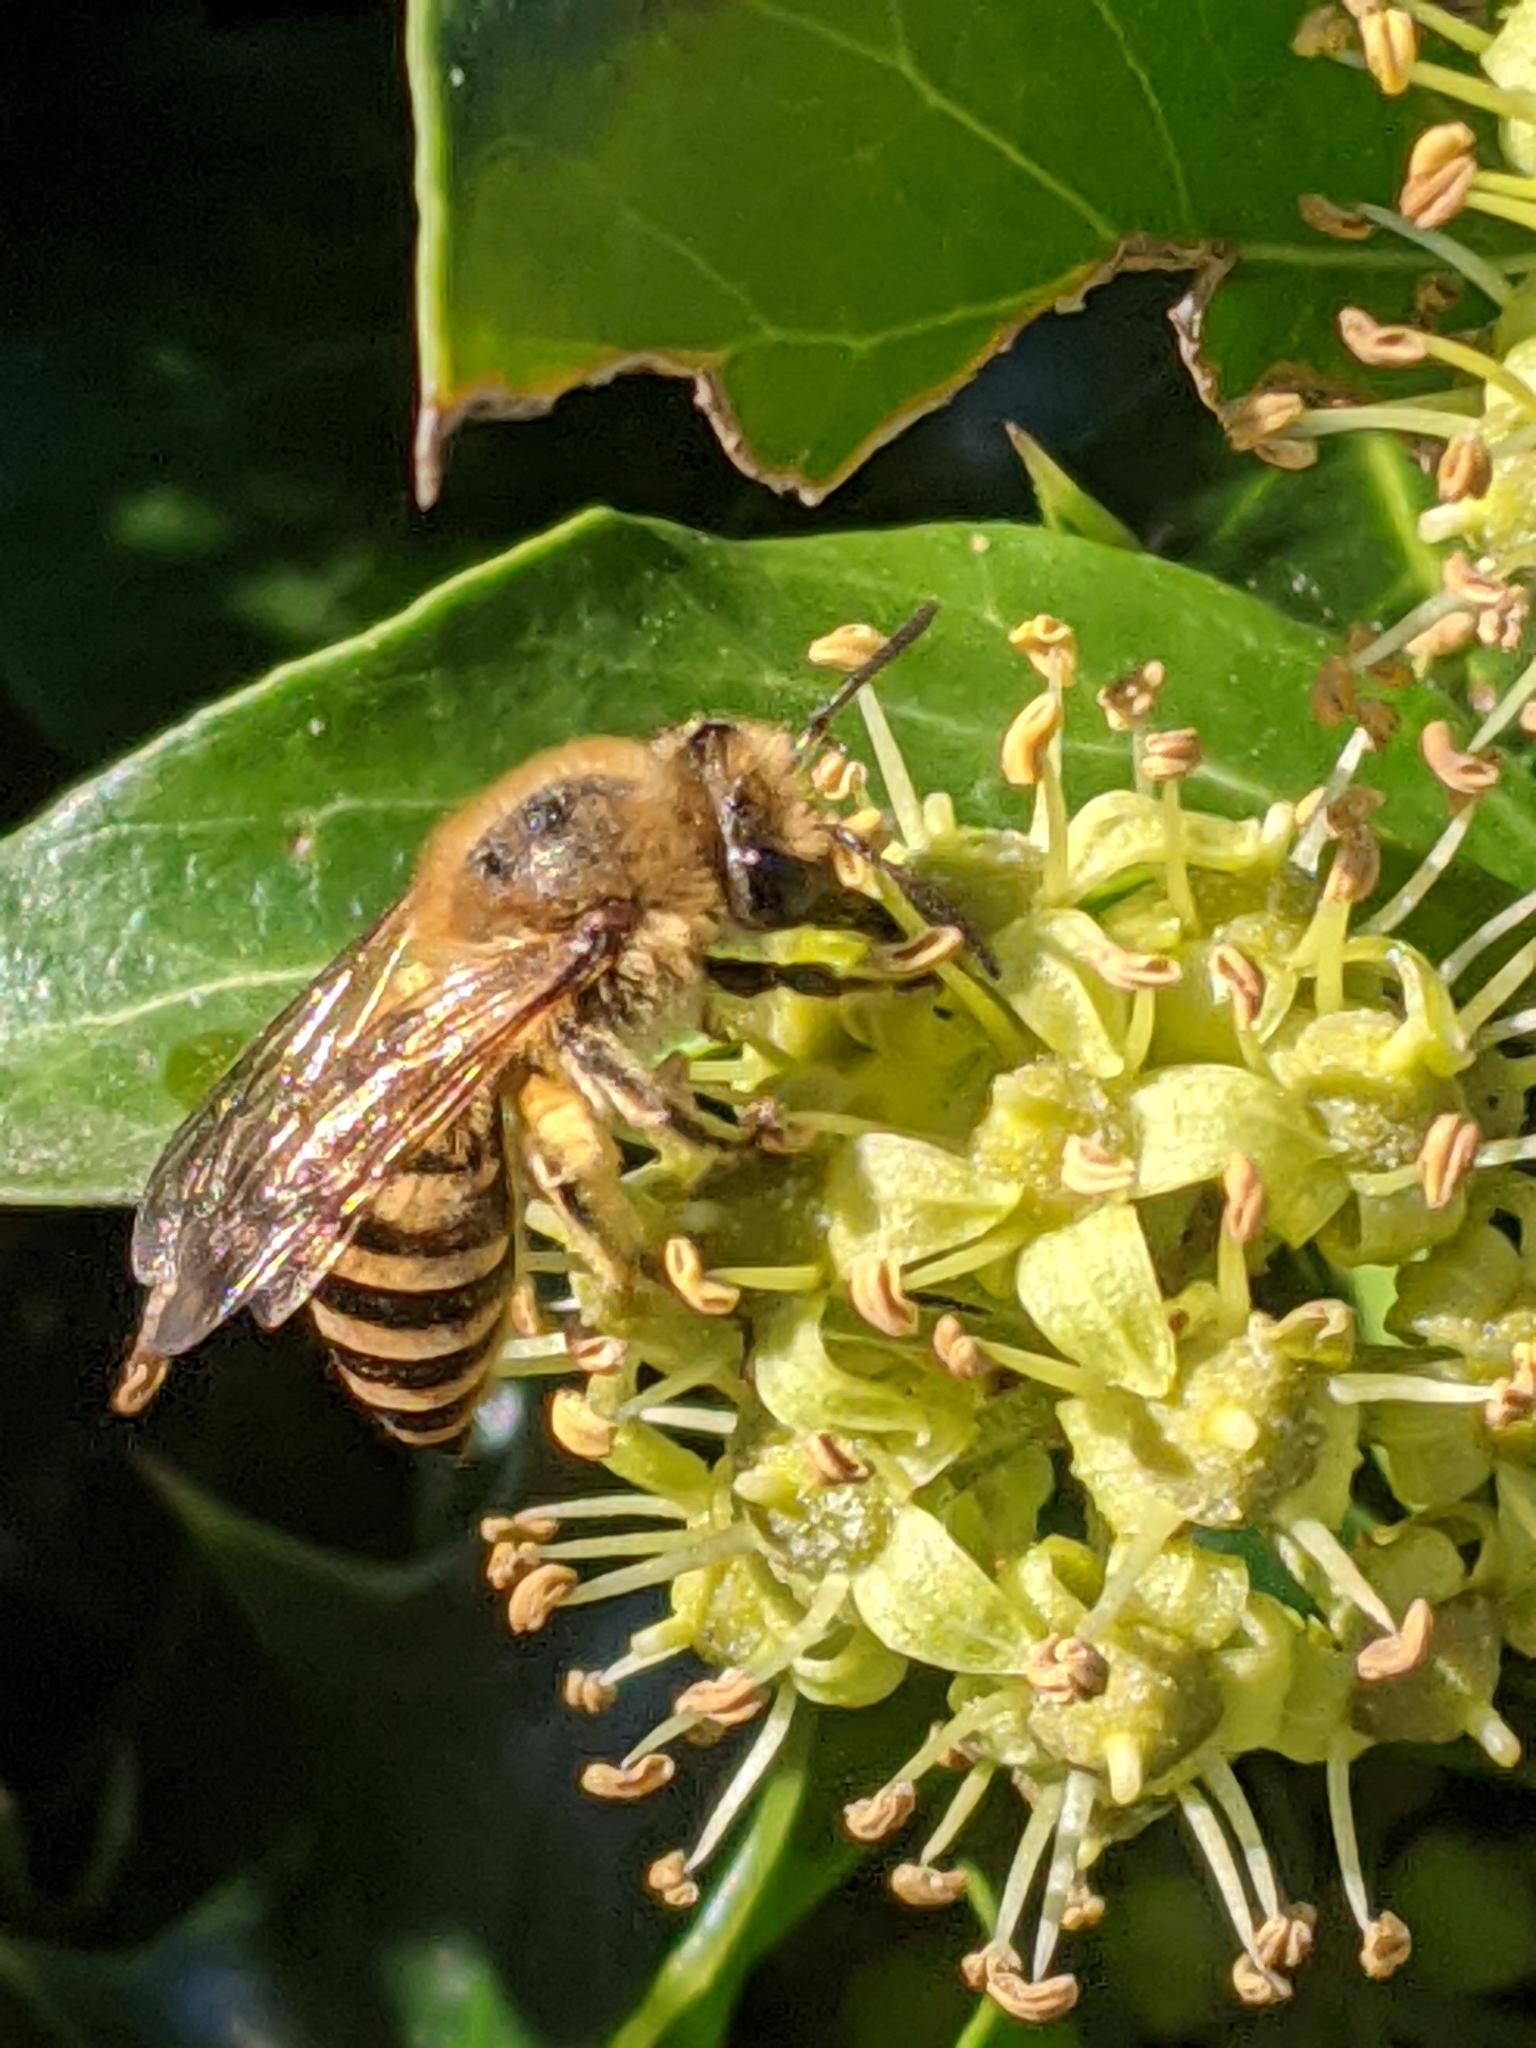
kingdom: Animalia
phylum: Arthropoda
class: Insecta
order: Hymenoptera
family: Colletidae
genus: Colletes
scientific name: Colletes hederae
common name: Ivy bee
